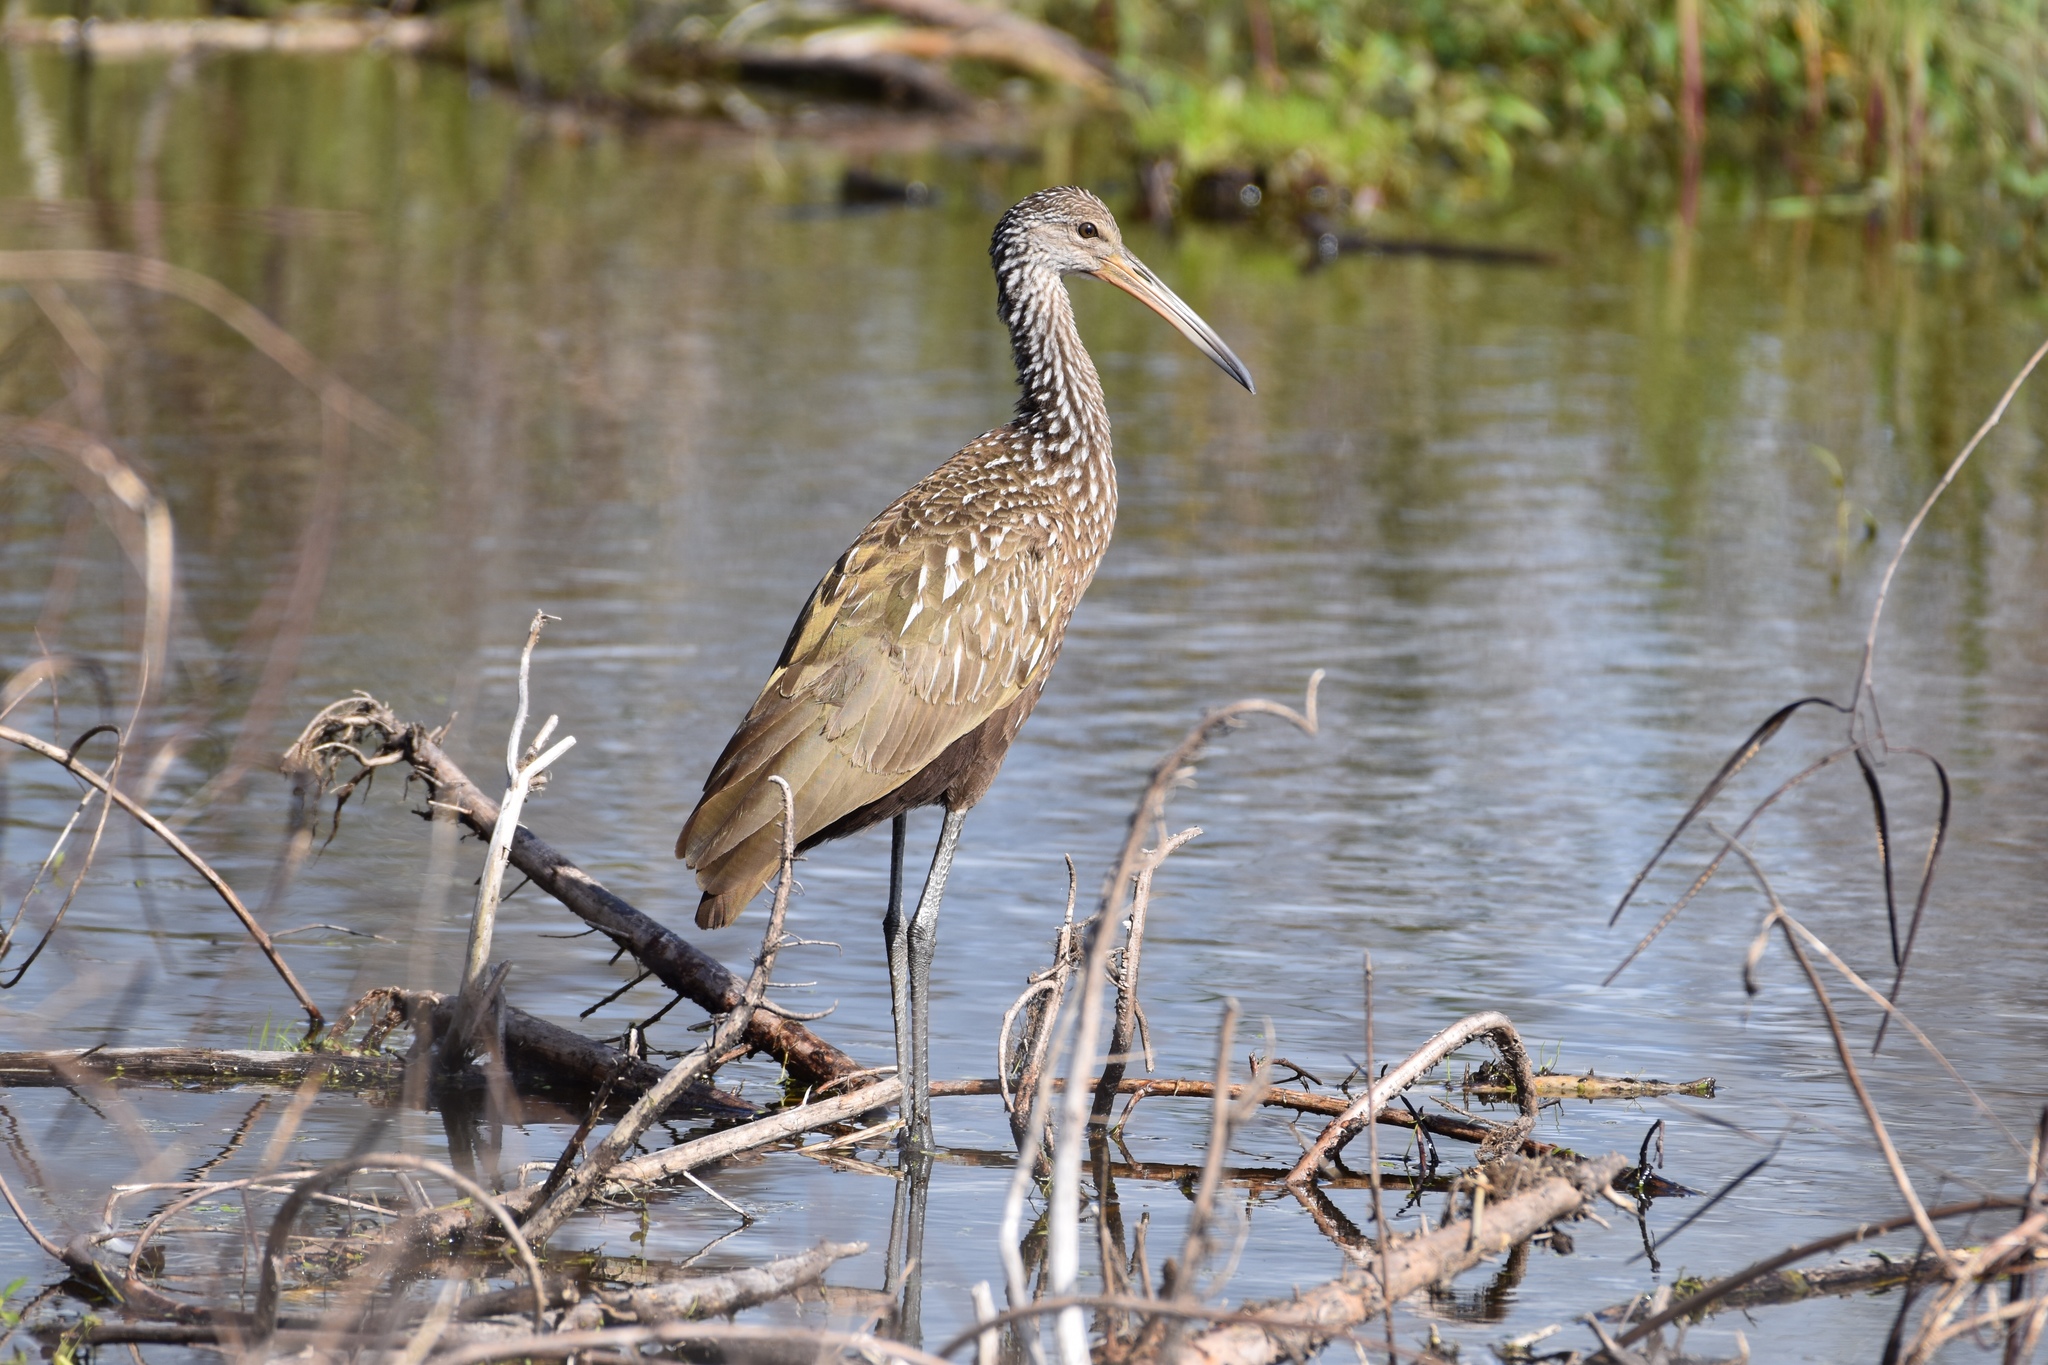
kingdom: Animalia
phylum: Chordata
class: Aves
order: Gruiformes
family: Aramidae
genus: Aramus
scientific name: Aramus guarauna
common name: Limpkin
